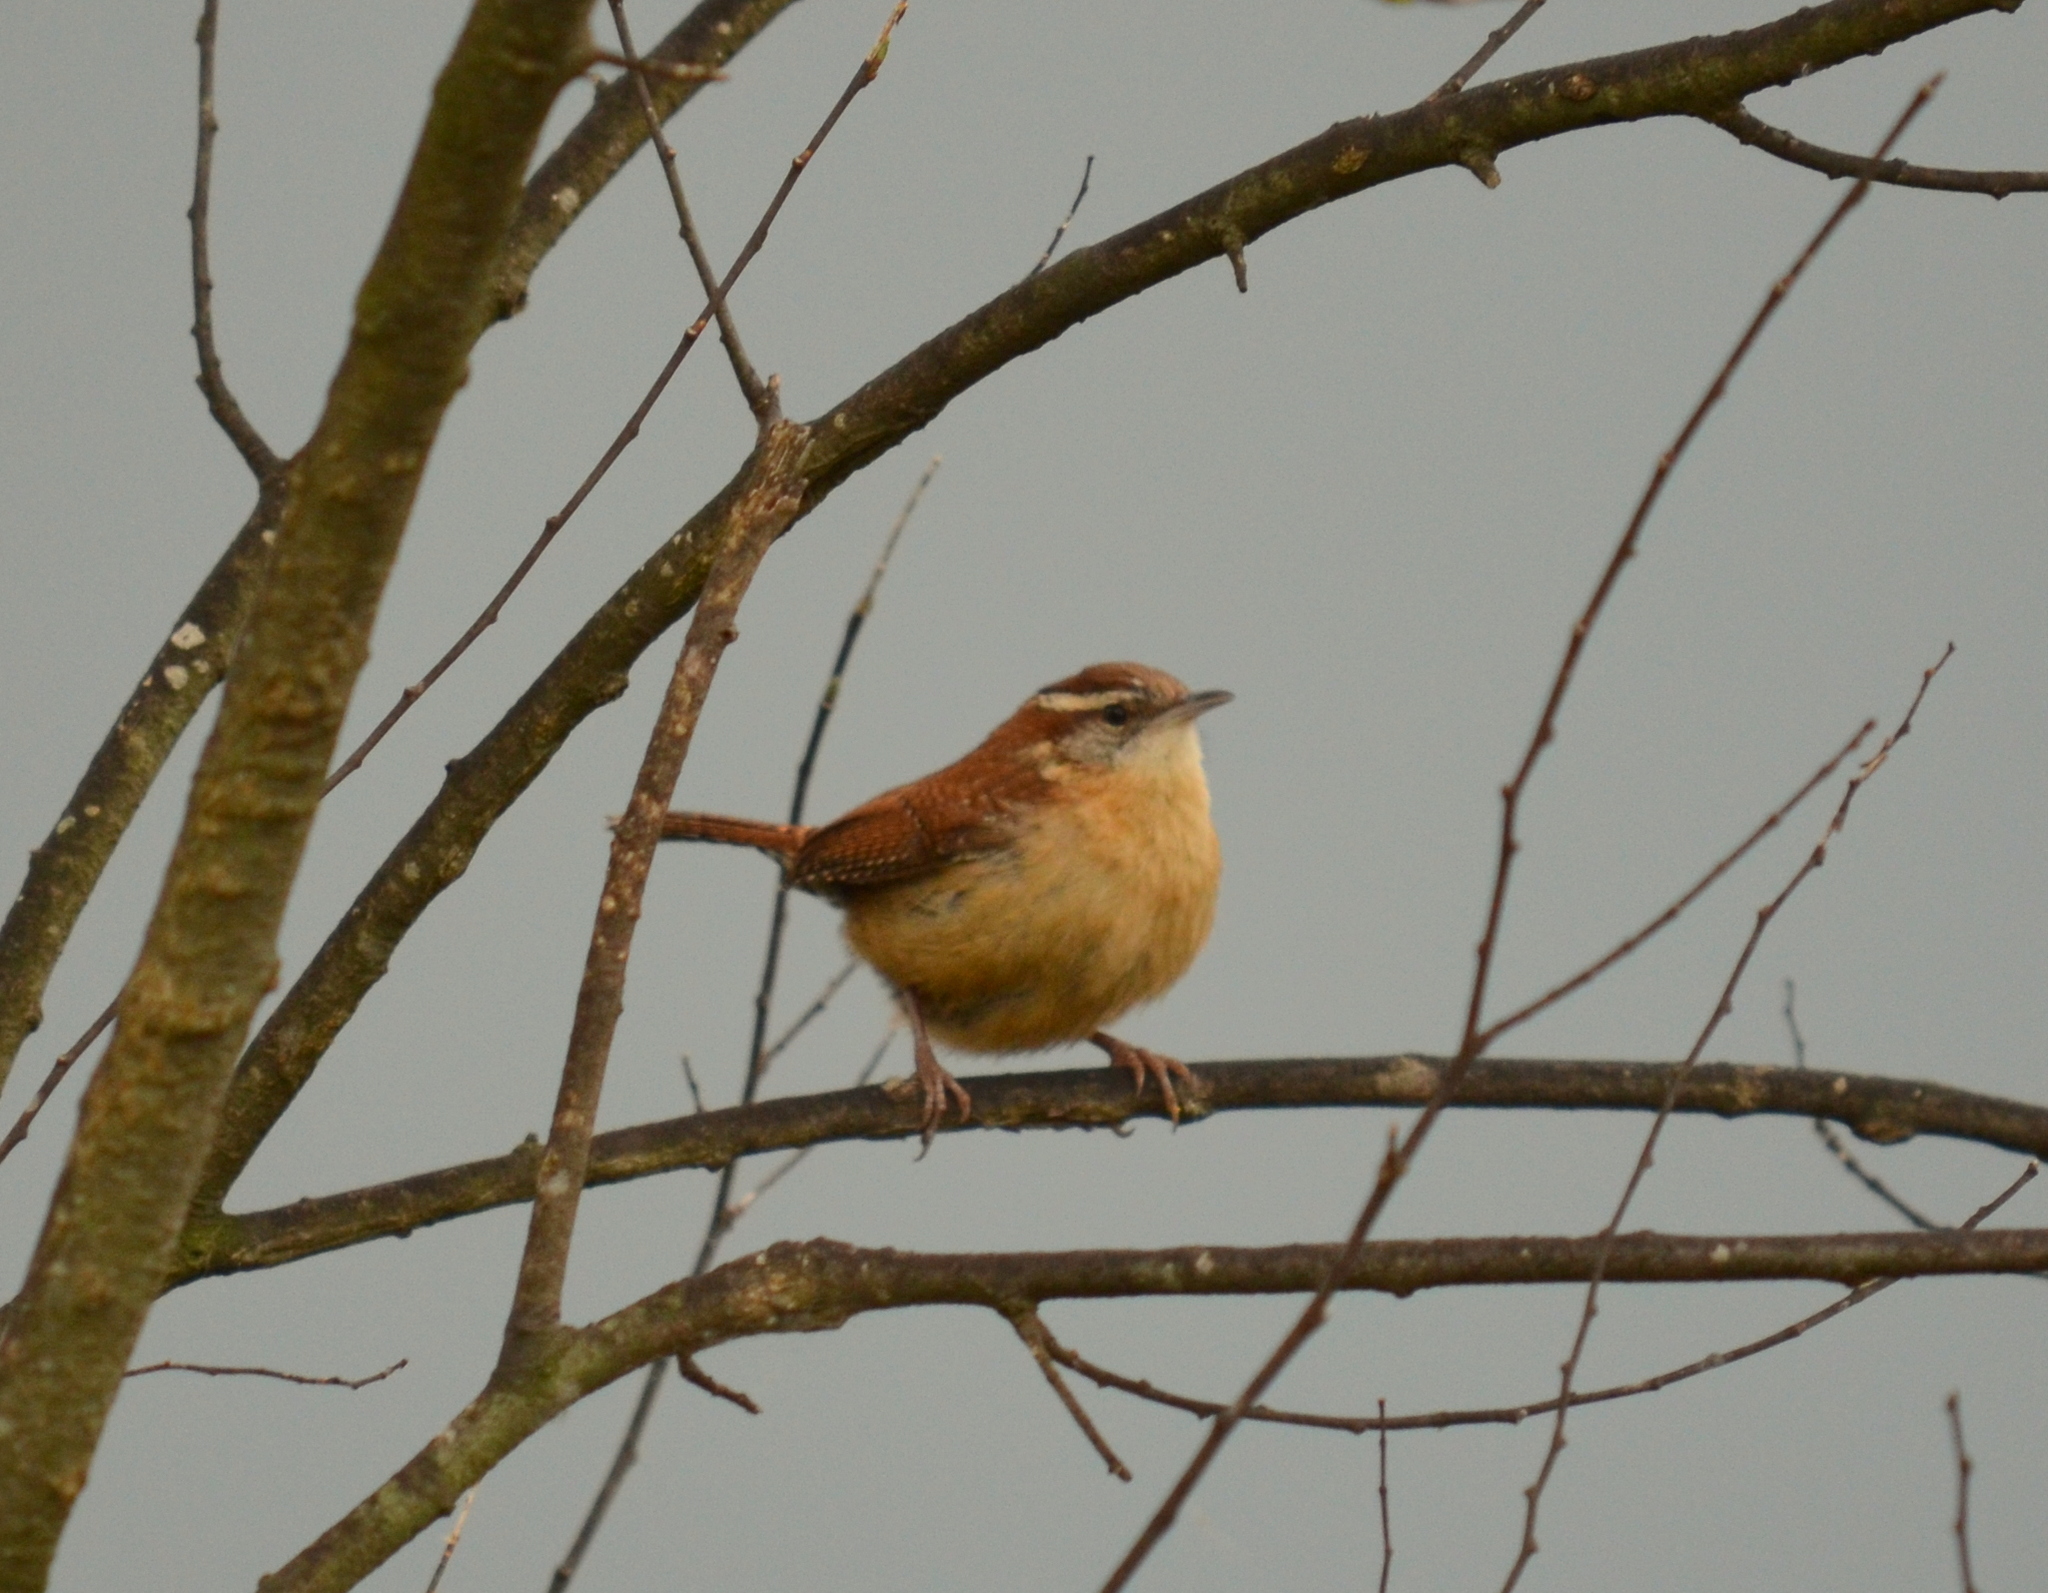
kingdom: Animalia
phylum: Chordata
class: Aves
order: Passeriformes
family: Troglodytidae
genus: Thryothorus
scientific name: Thryothorus ludovicianus
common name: Carolina wren
